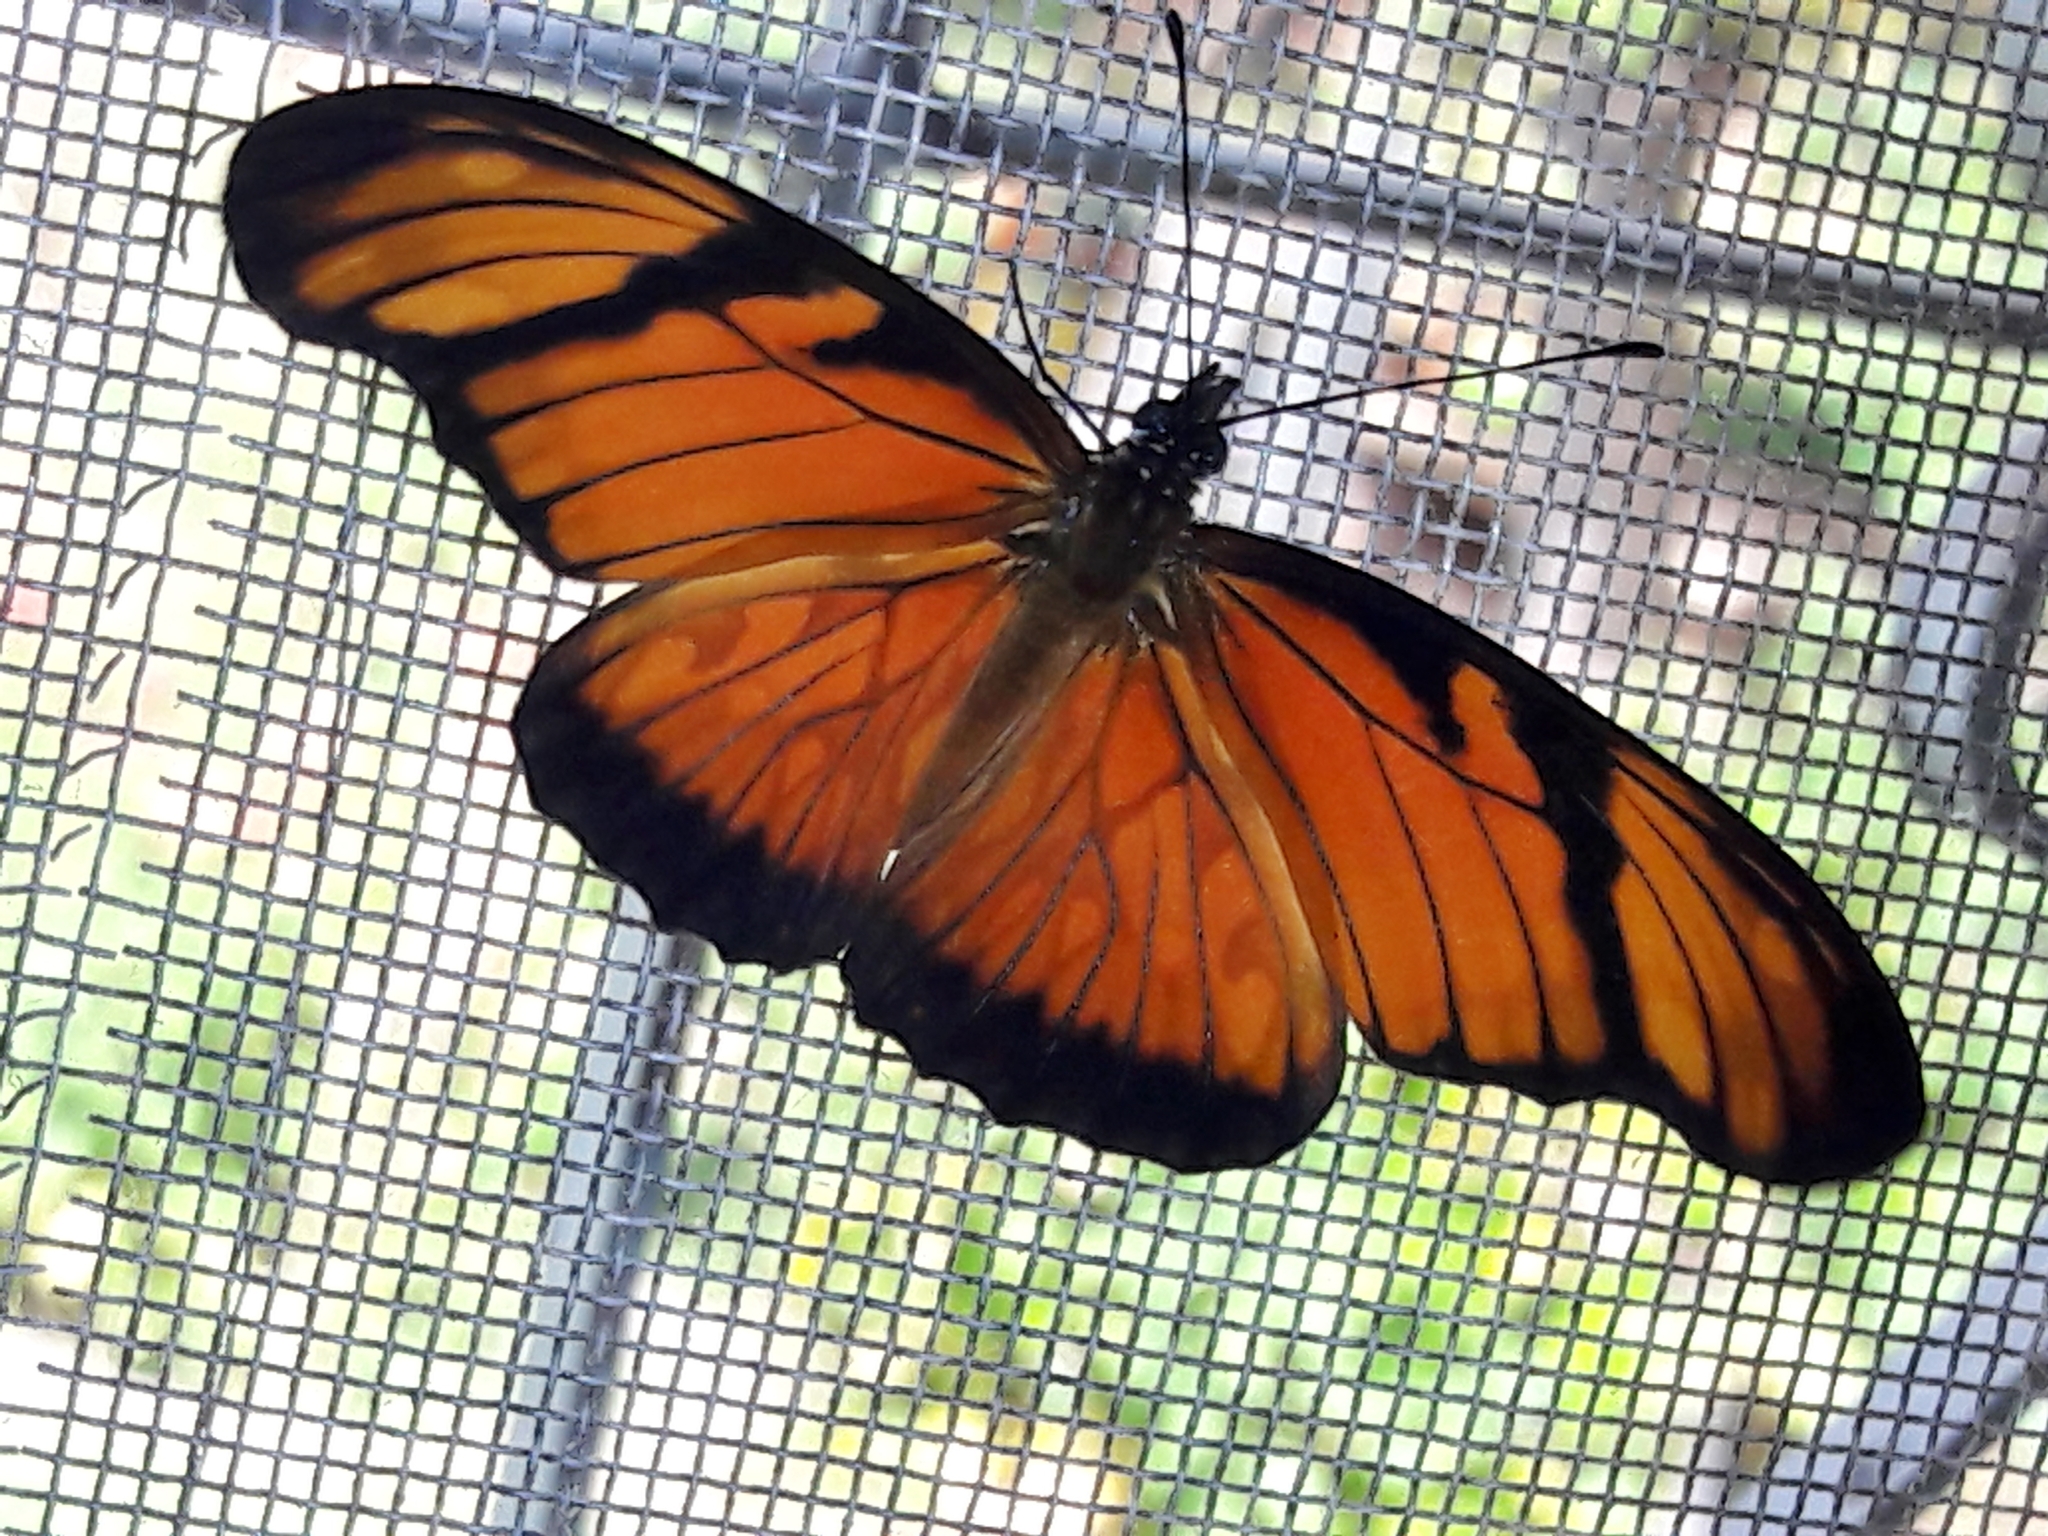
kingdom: Animalia
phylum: Arthropoda
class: Insecta
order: Lepidoptera
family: Nymphalidae
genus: Dione
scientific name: Dione juno
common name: Juno silverspot
